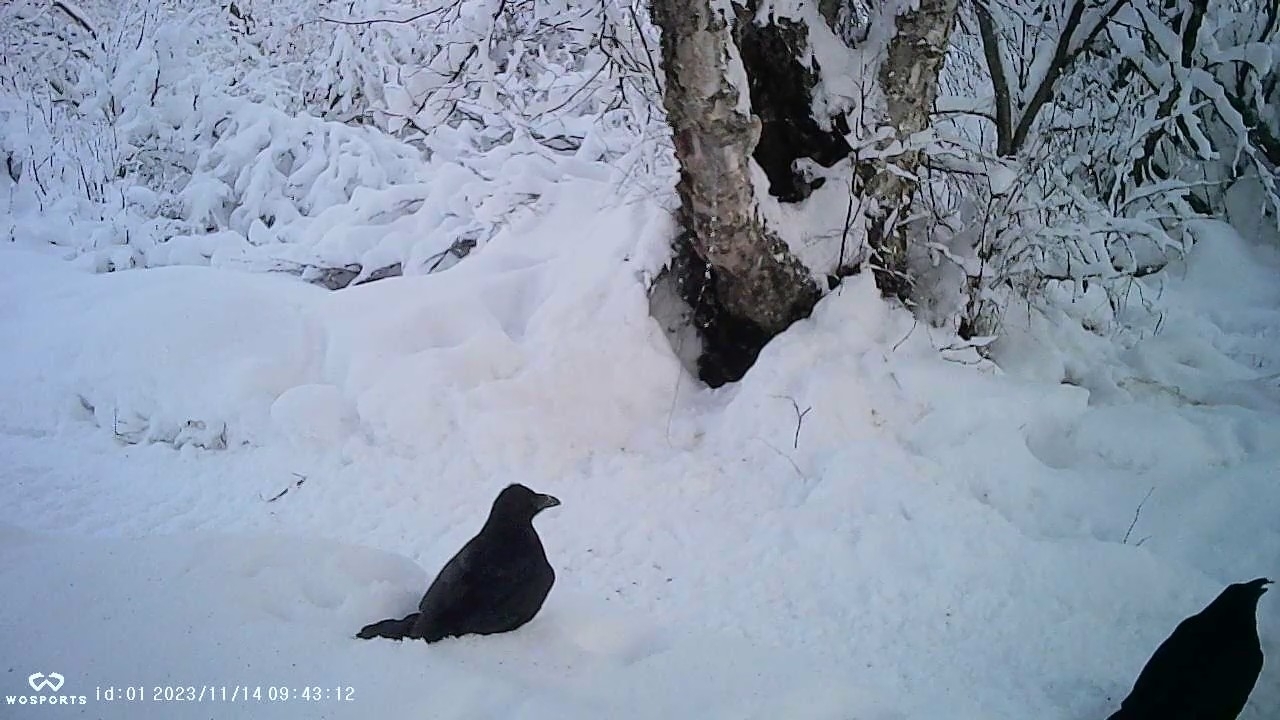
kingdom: Animalia
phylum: Chordata
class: Aves
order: Passeriformes
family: Corvidae
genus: Corvus
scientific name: Corvus corax
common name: Common raven
